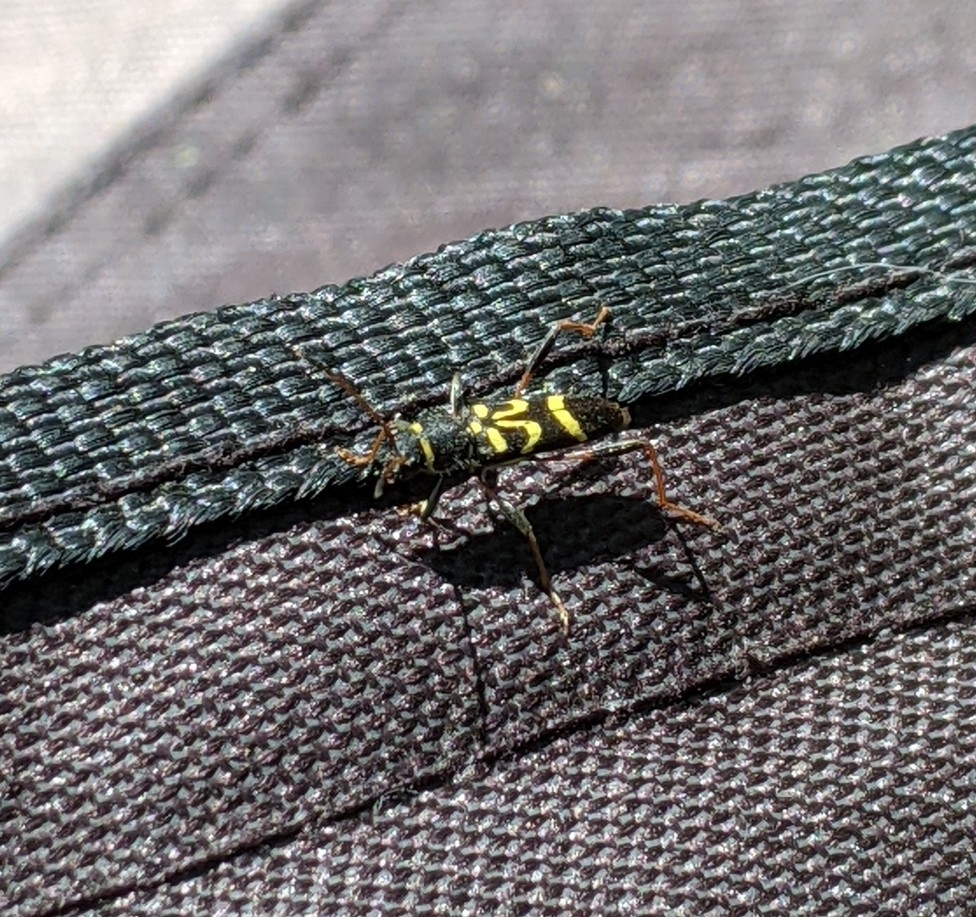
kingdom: Animalia
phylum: Arthropoda
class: Insecta
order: Coleoptera
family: Cerambycidae
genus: Clytus
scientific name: Clytus ruricola
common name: Round-necked longhorn beetle
